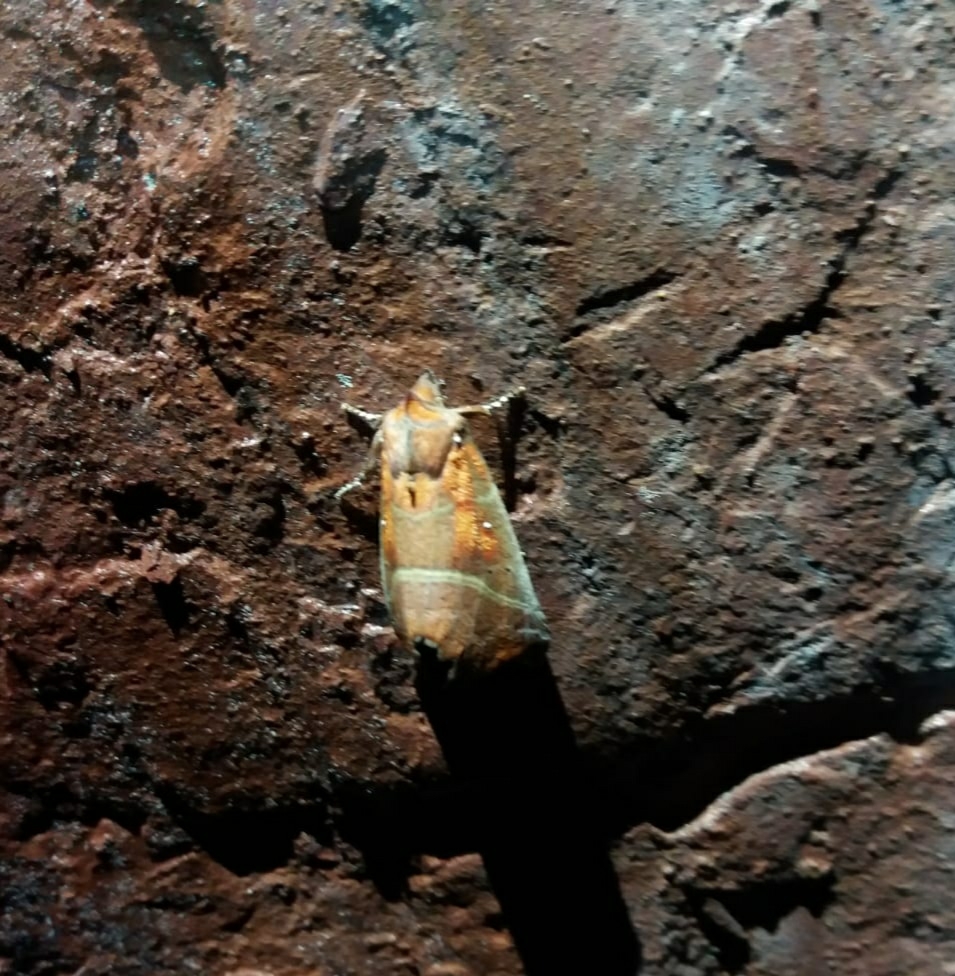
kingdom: Animalia
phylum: Arthropoda
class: Insecta
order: Lepidoptera
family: Erebidae
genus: Scoliopteryx
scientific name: Scoliopteryx libatrix
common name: Herald
